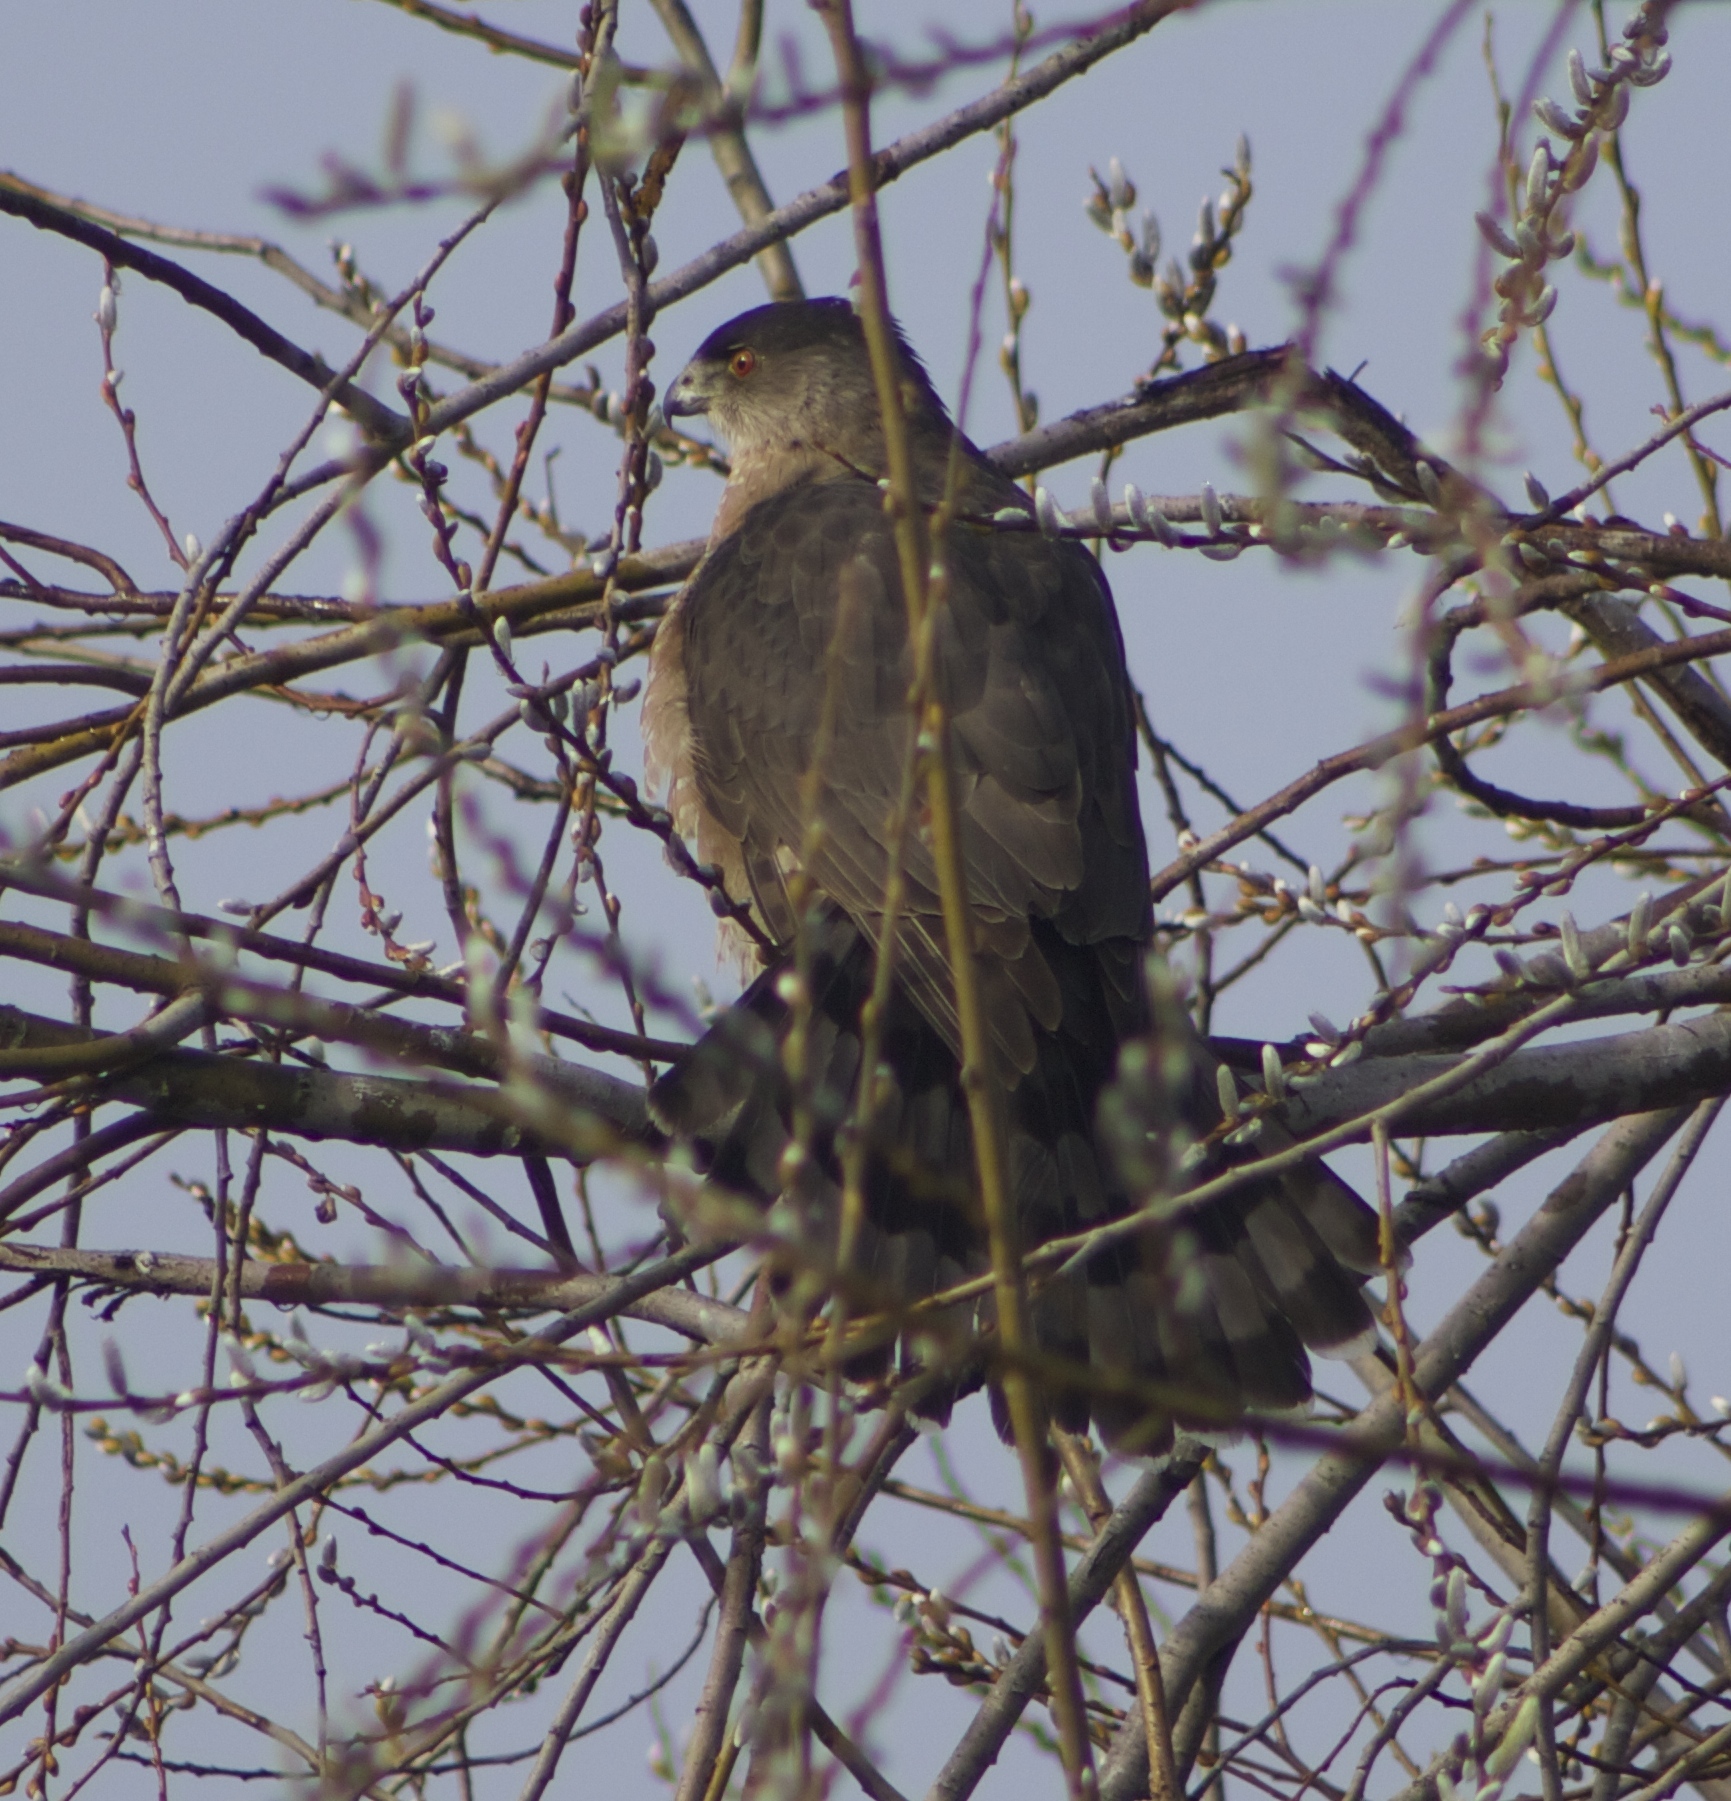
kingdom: Animalia
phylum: Chordata
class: Aves
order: Accipitriformes
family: Accipitridae
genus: Accipiter
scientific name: Accipiter cooperii
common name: Cooper's hawk
